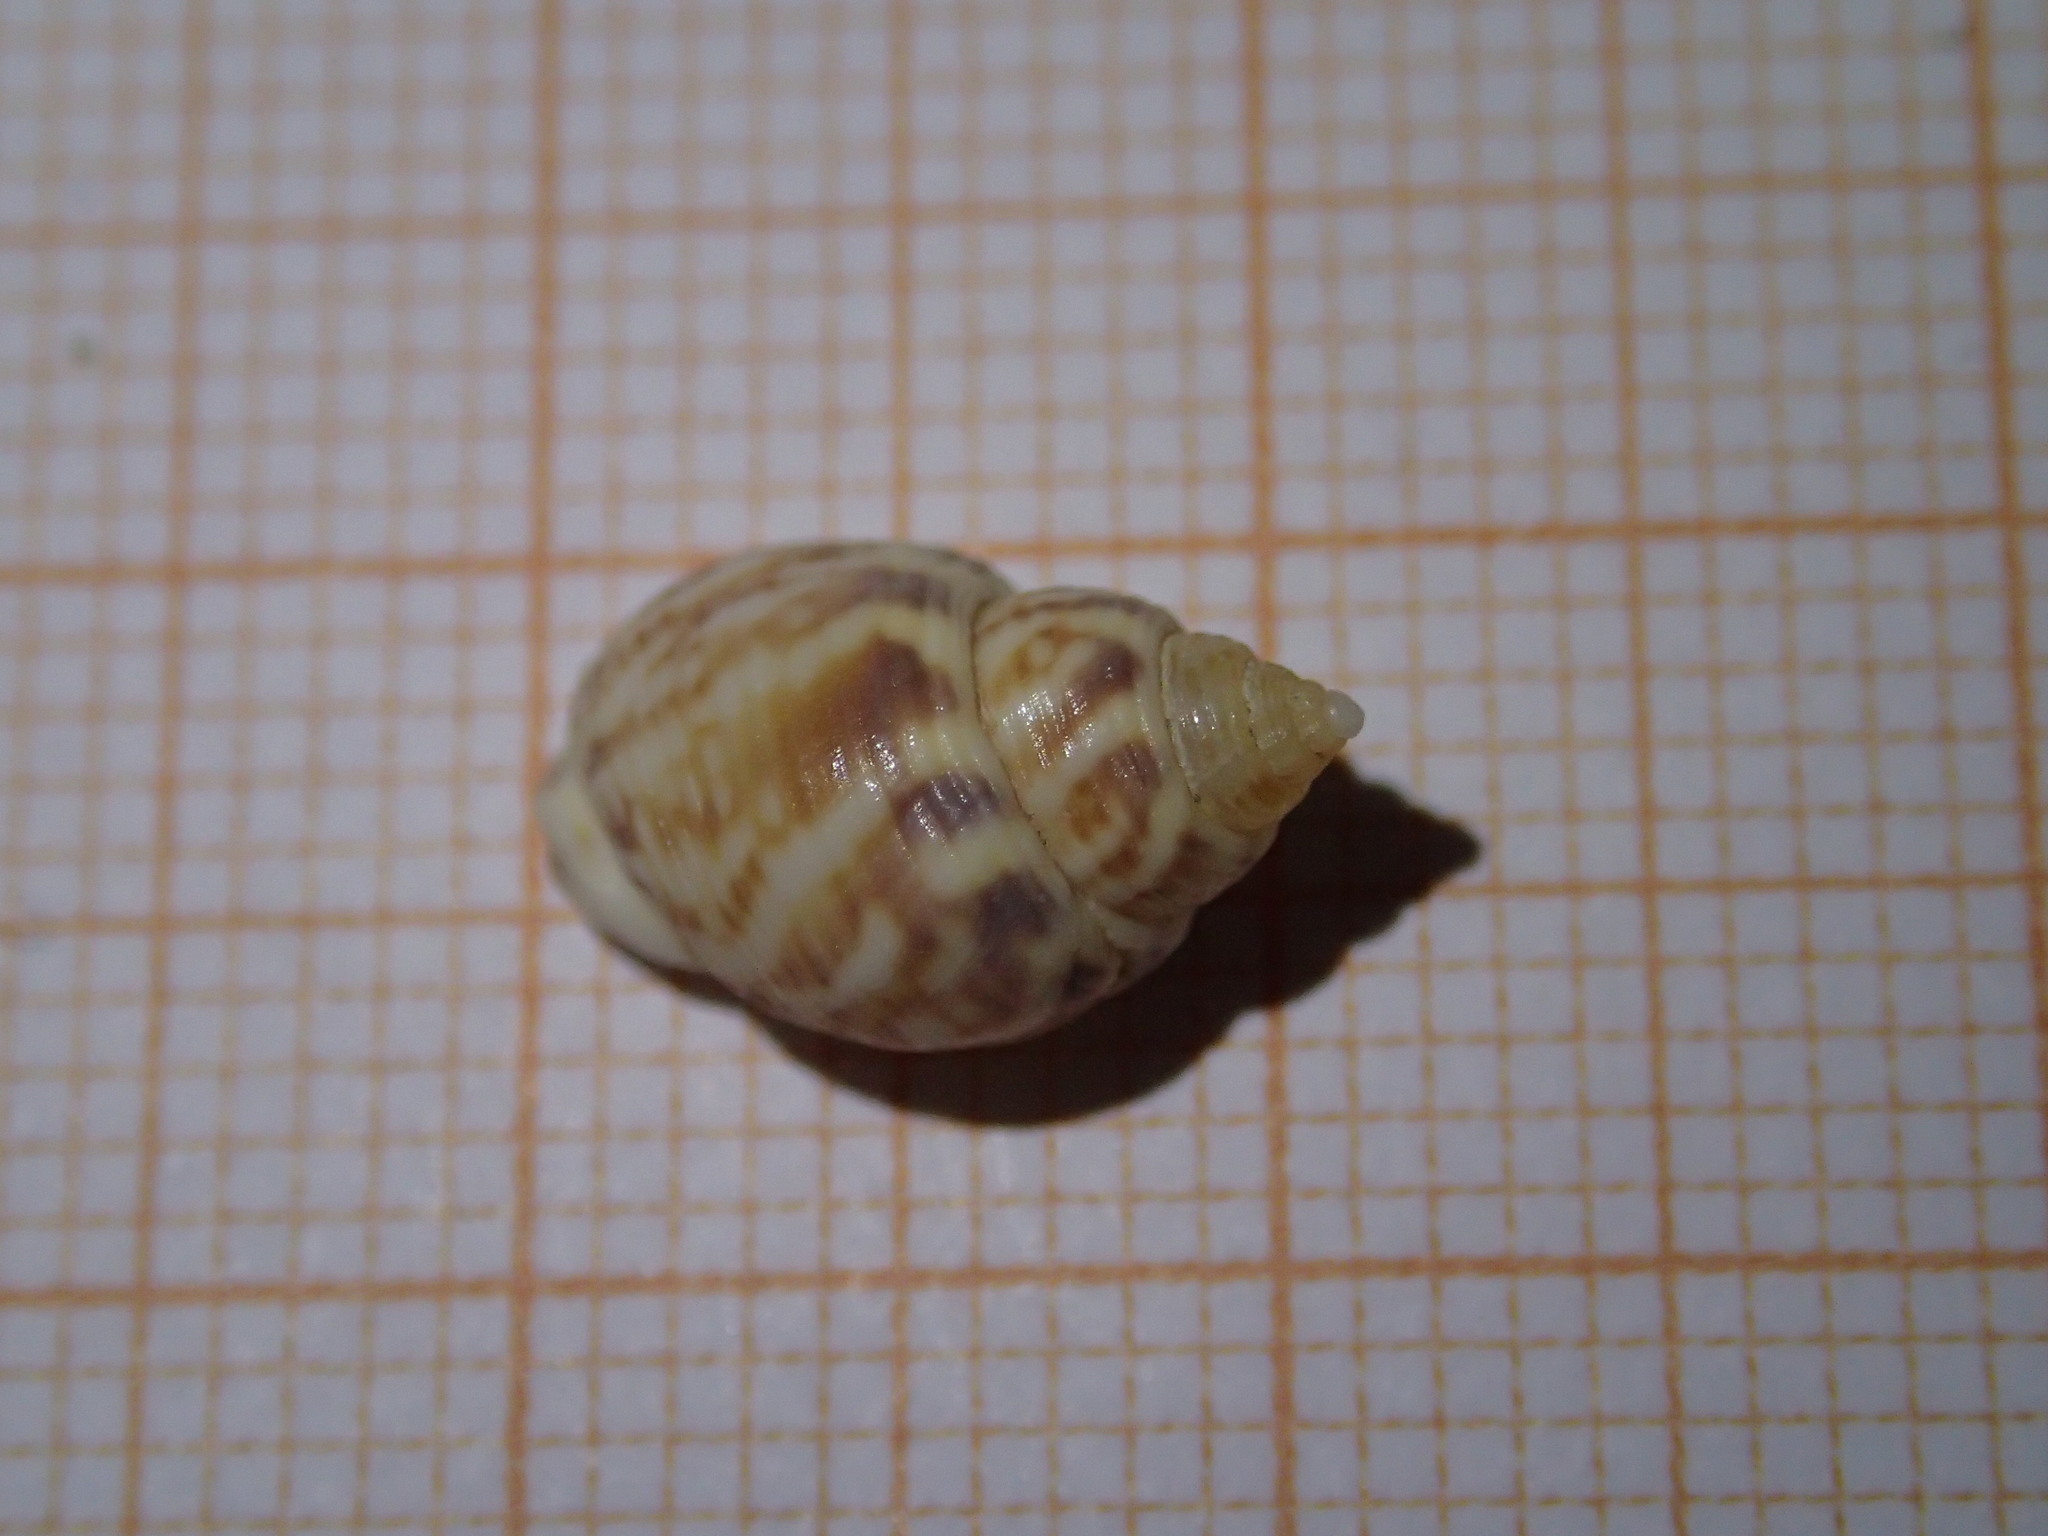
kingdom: Animalia
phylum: Mollusca
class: Gastropoda
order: Neogastropoda
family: Nassariidae
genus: Tritia
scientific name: Tritia mutabilis
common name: Mutable nassa
